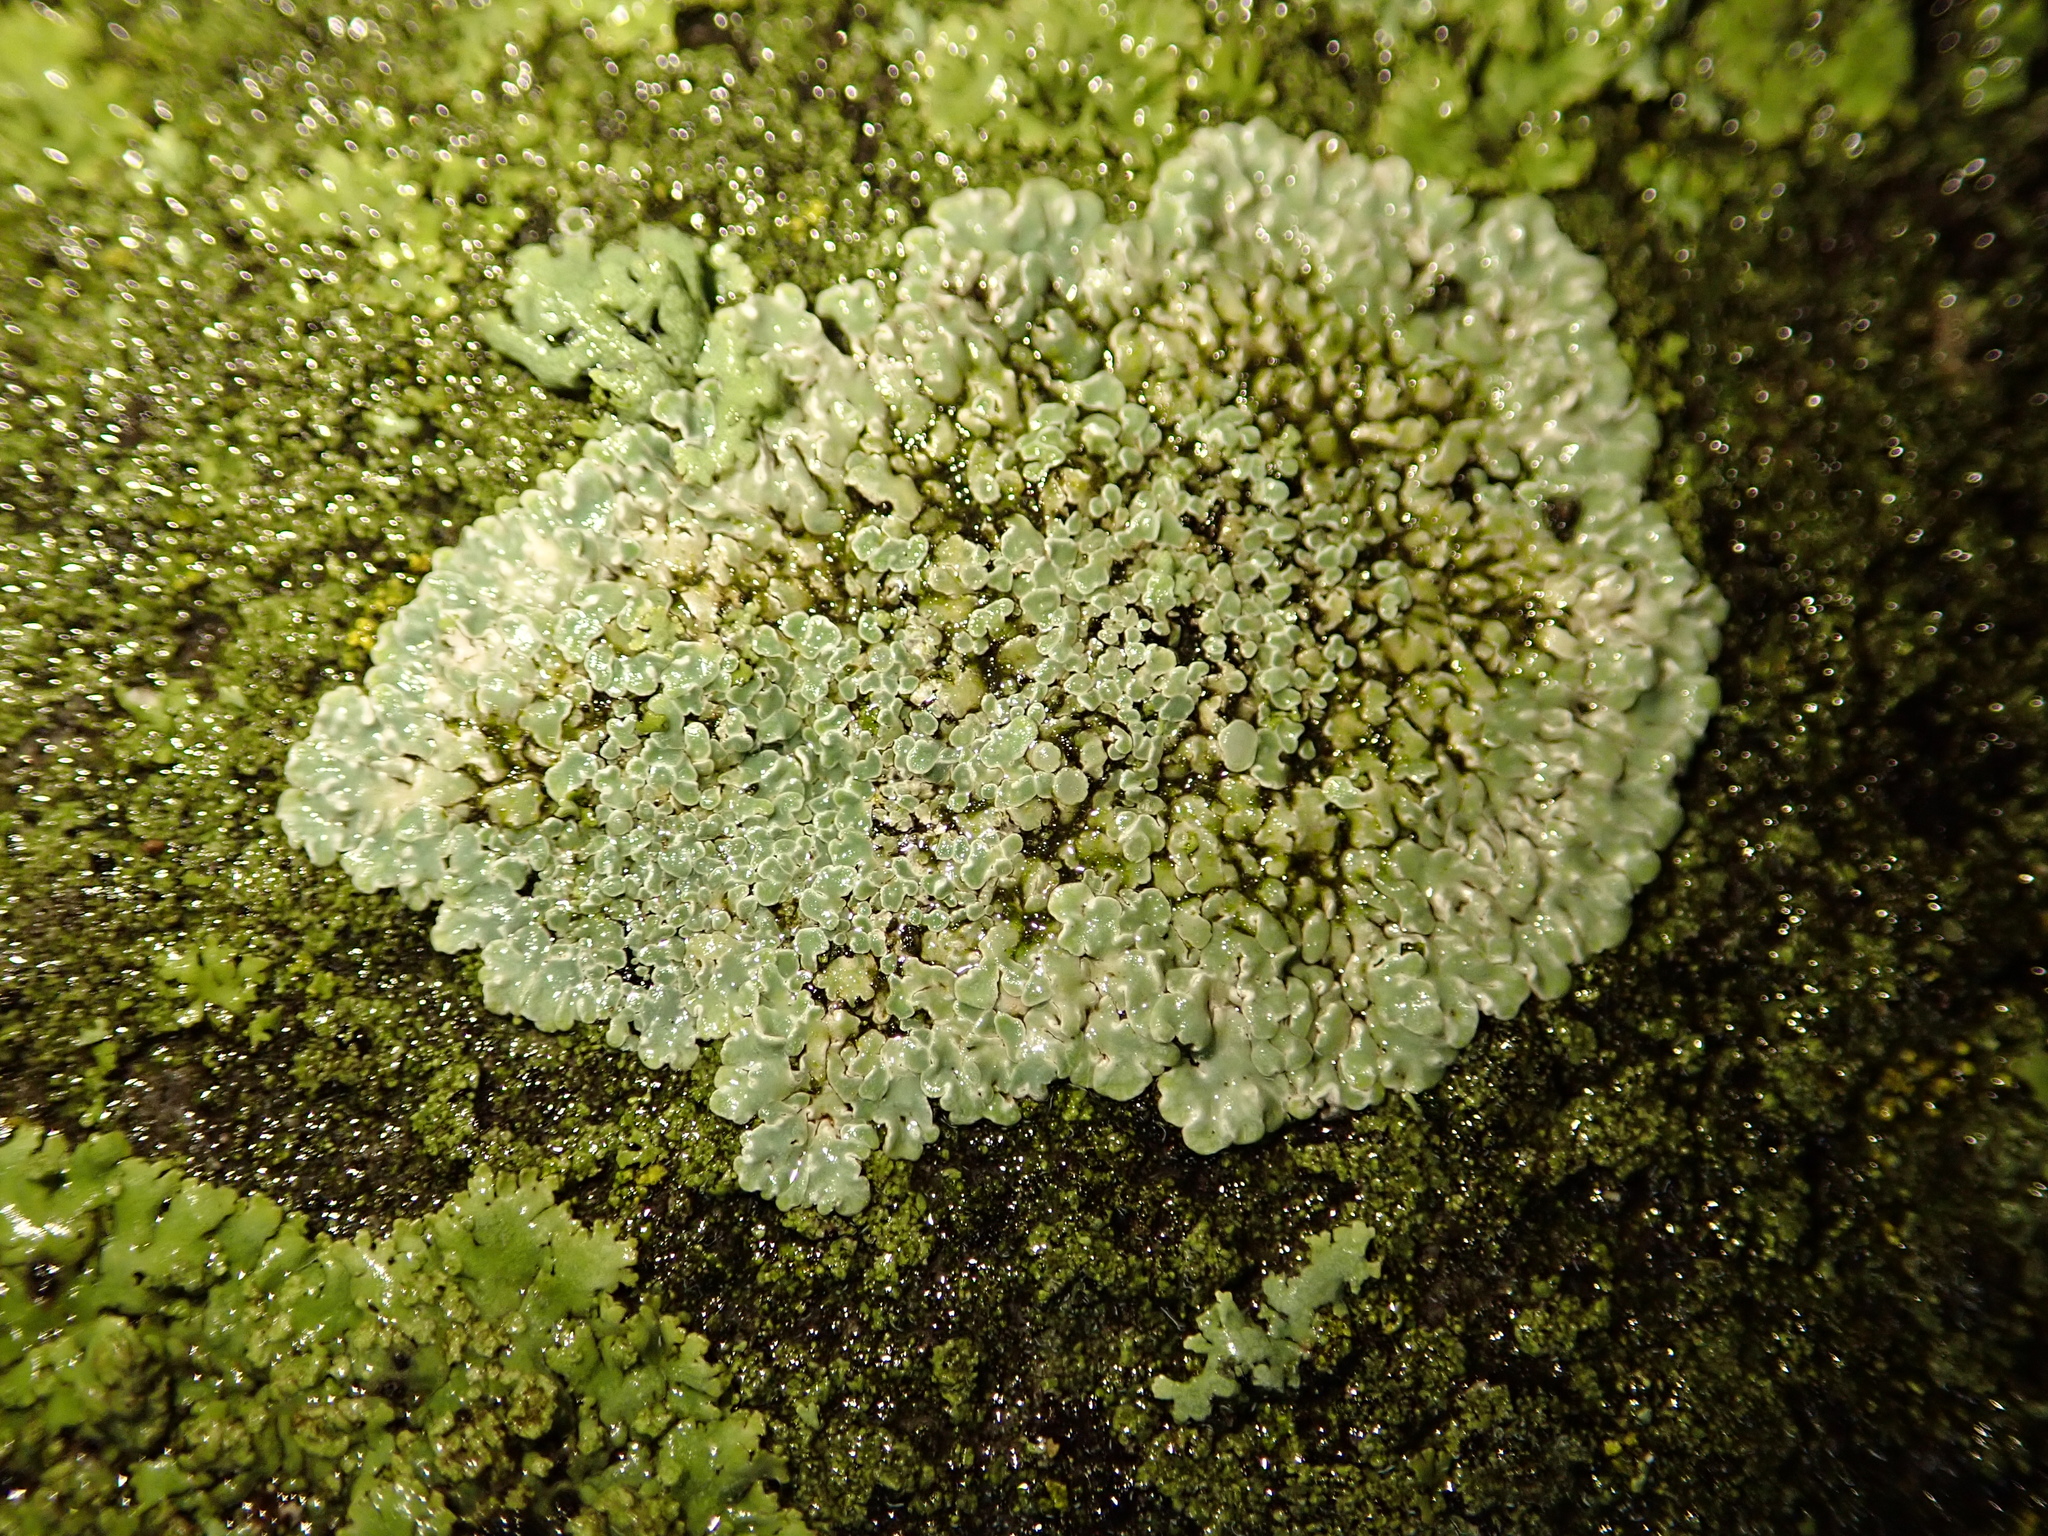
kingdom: Fungi
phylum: Ascomycota
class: Lecanoromycetes
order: Lecanorales
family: Lecanoraceae
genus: Protoparmeliopsis
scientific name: Protoparmeliopsis muralis
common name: Stonewall rim lichen
